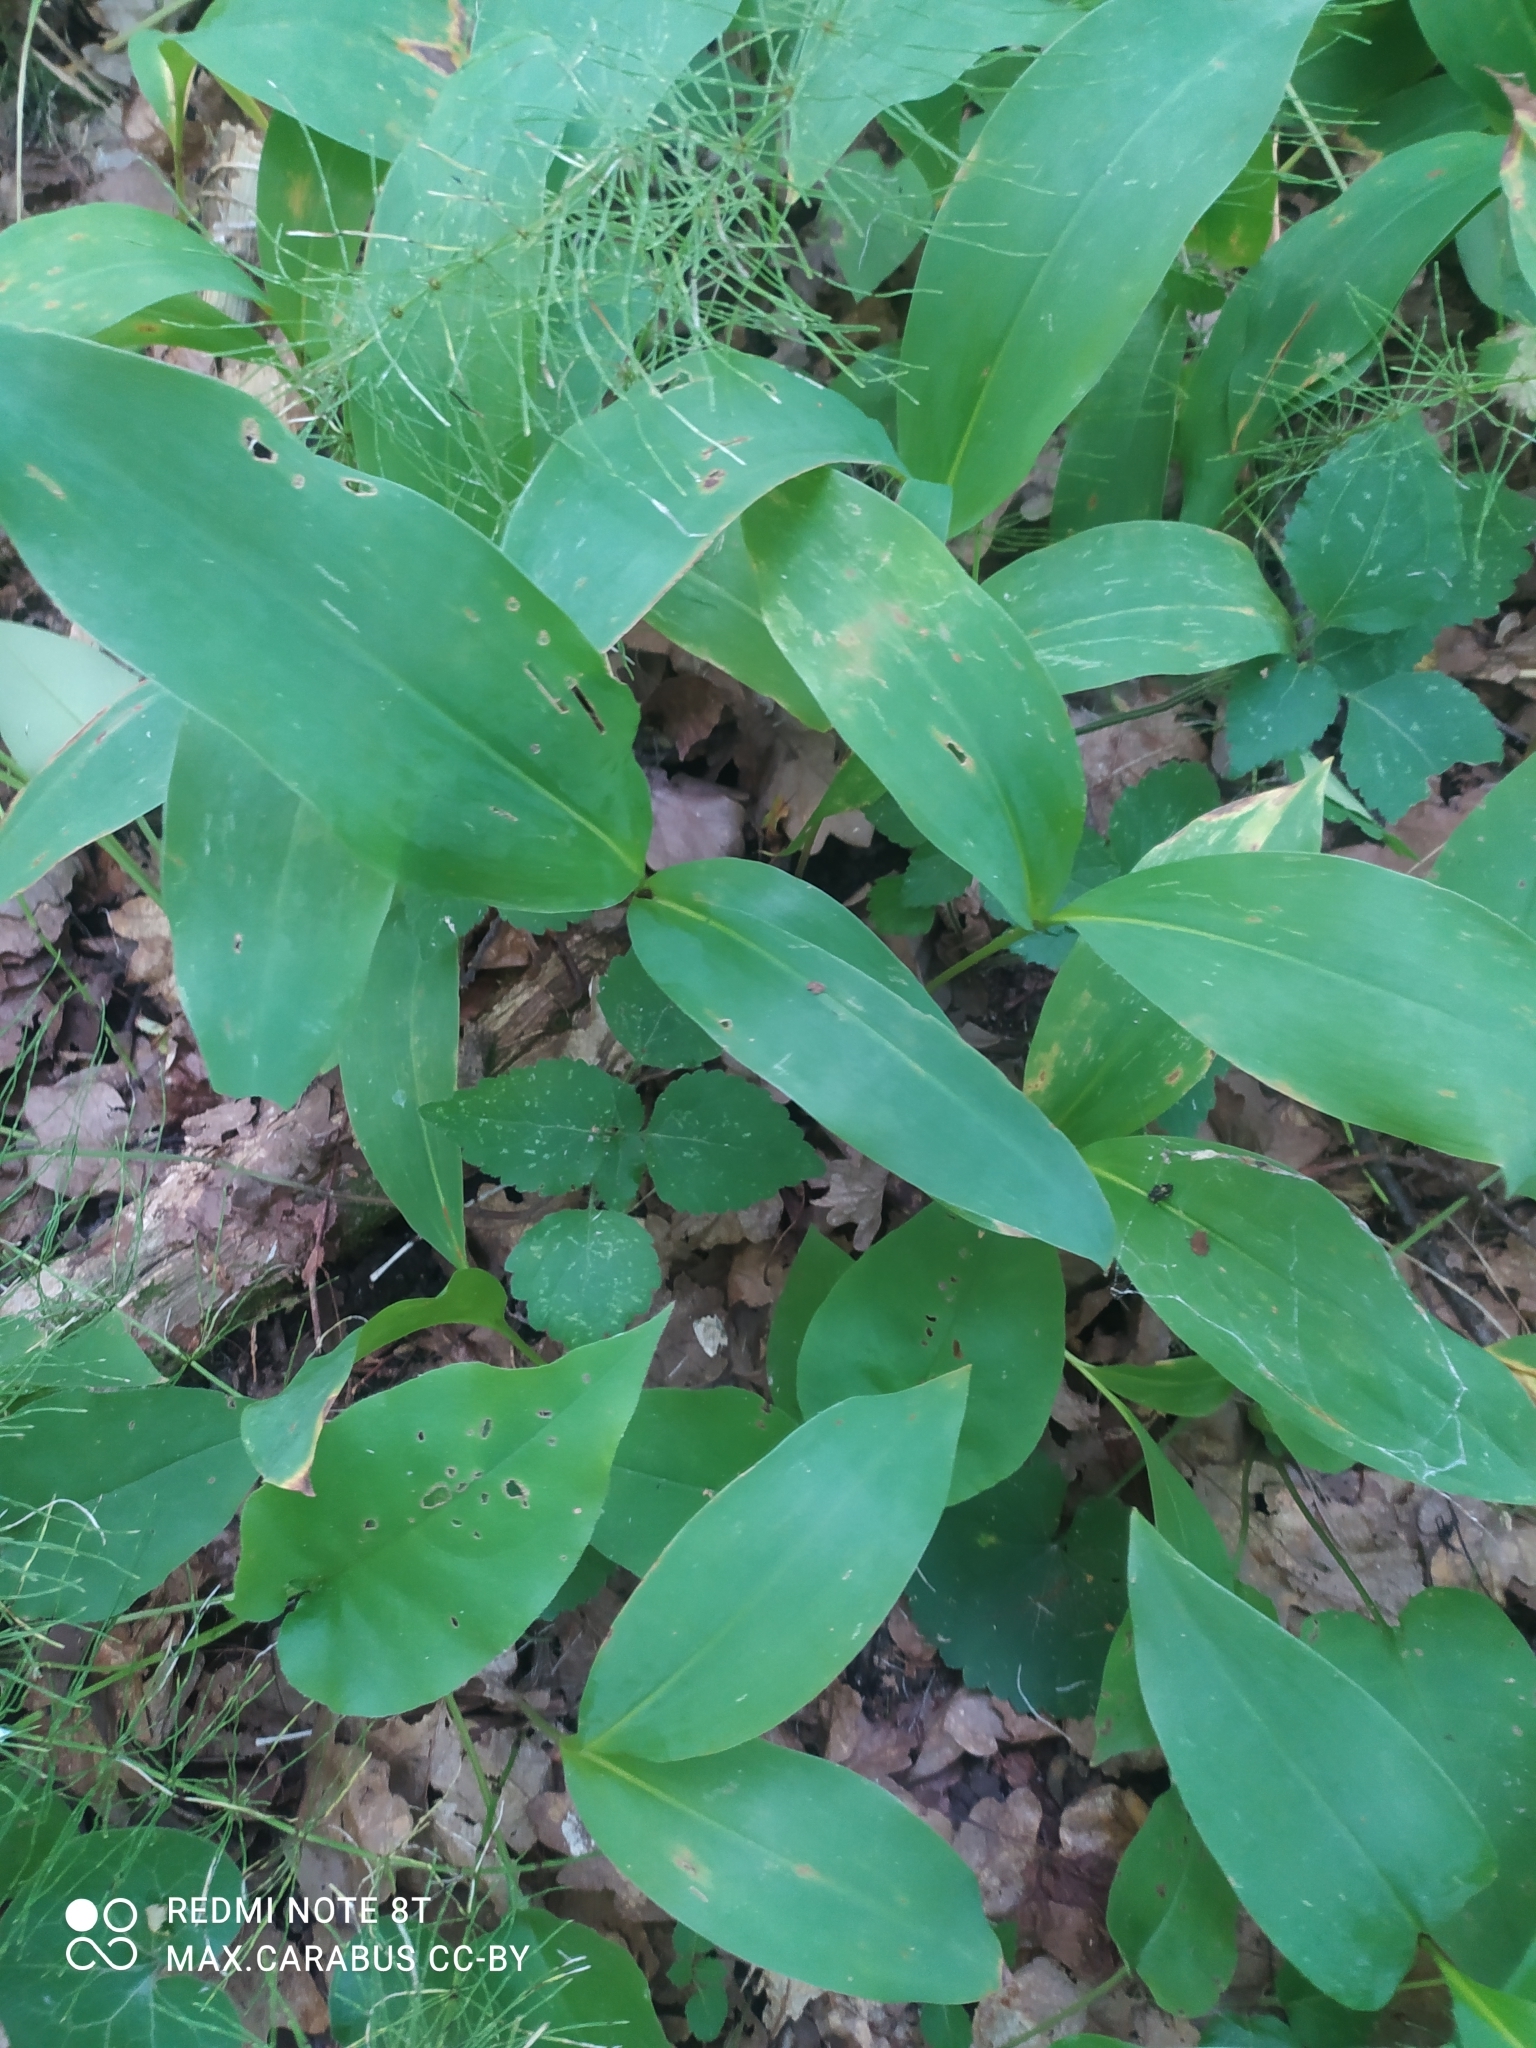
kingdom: Plantae
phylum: Tracheophyta
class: Liliopsida
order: Asparagales
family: Asparagaceae
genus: Convallaria
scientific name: Convallaria majalis
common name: Lily-of-the-valley
